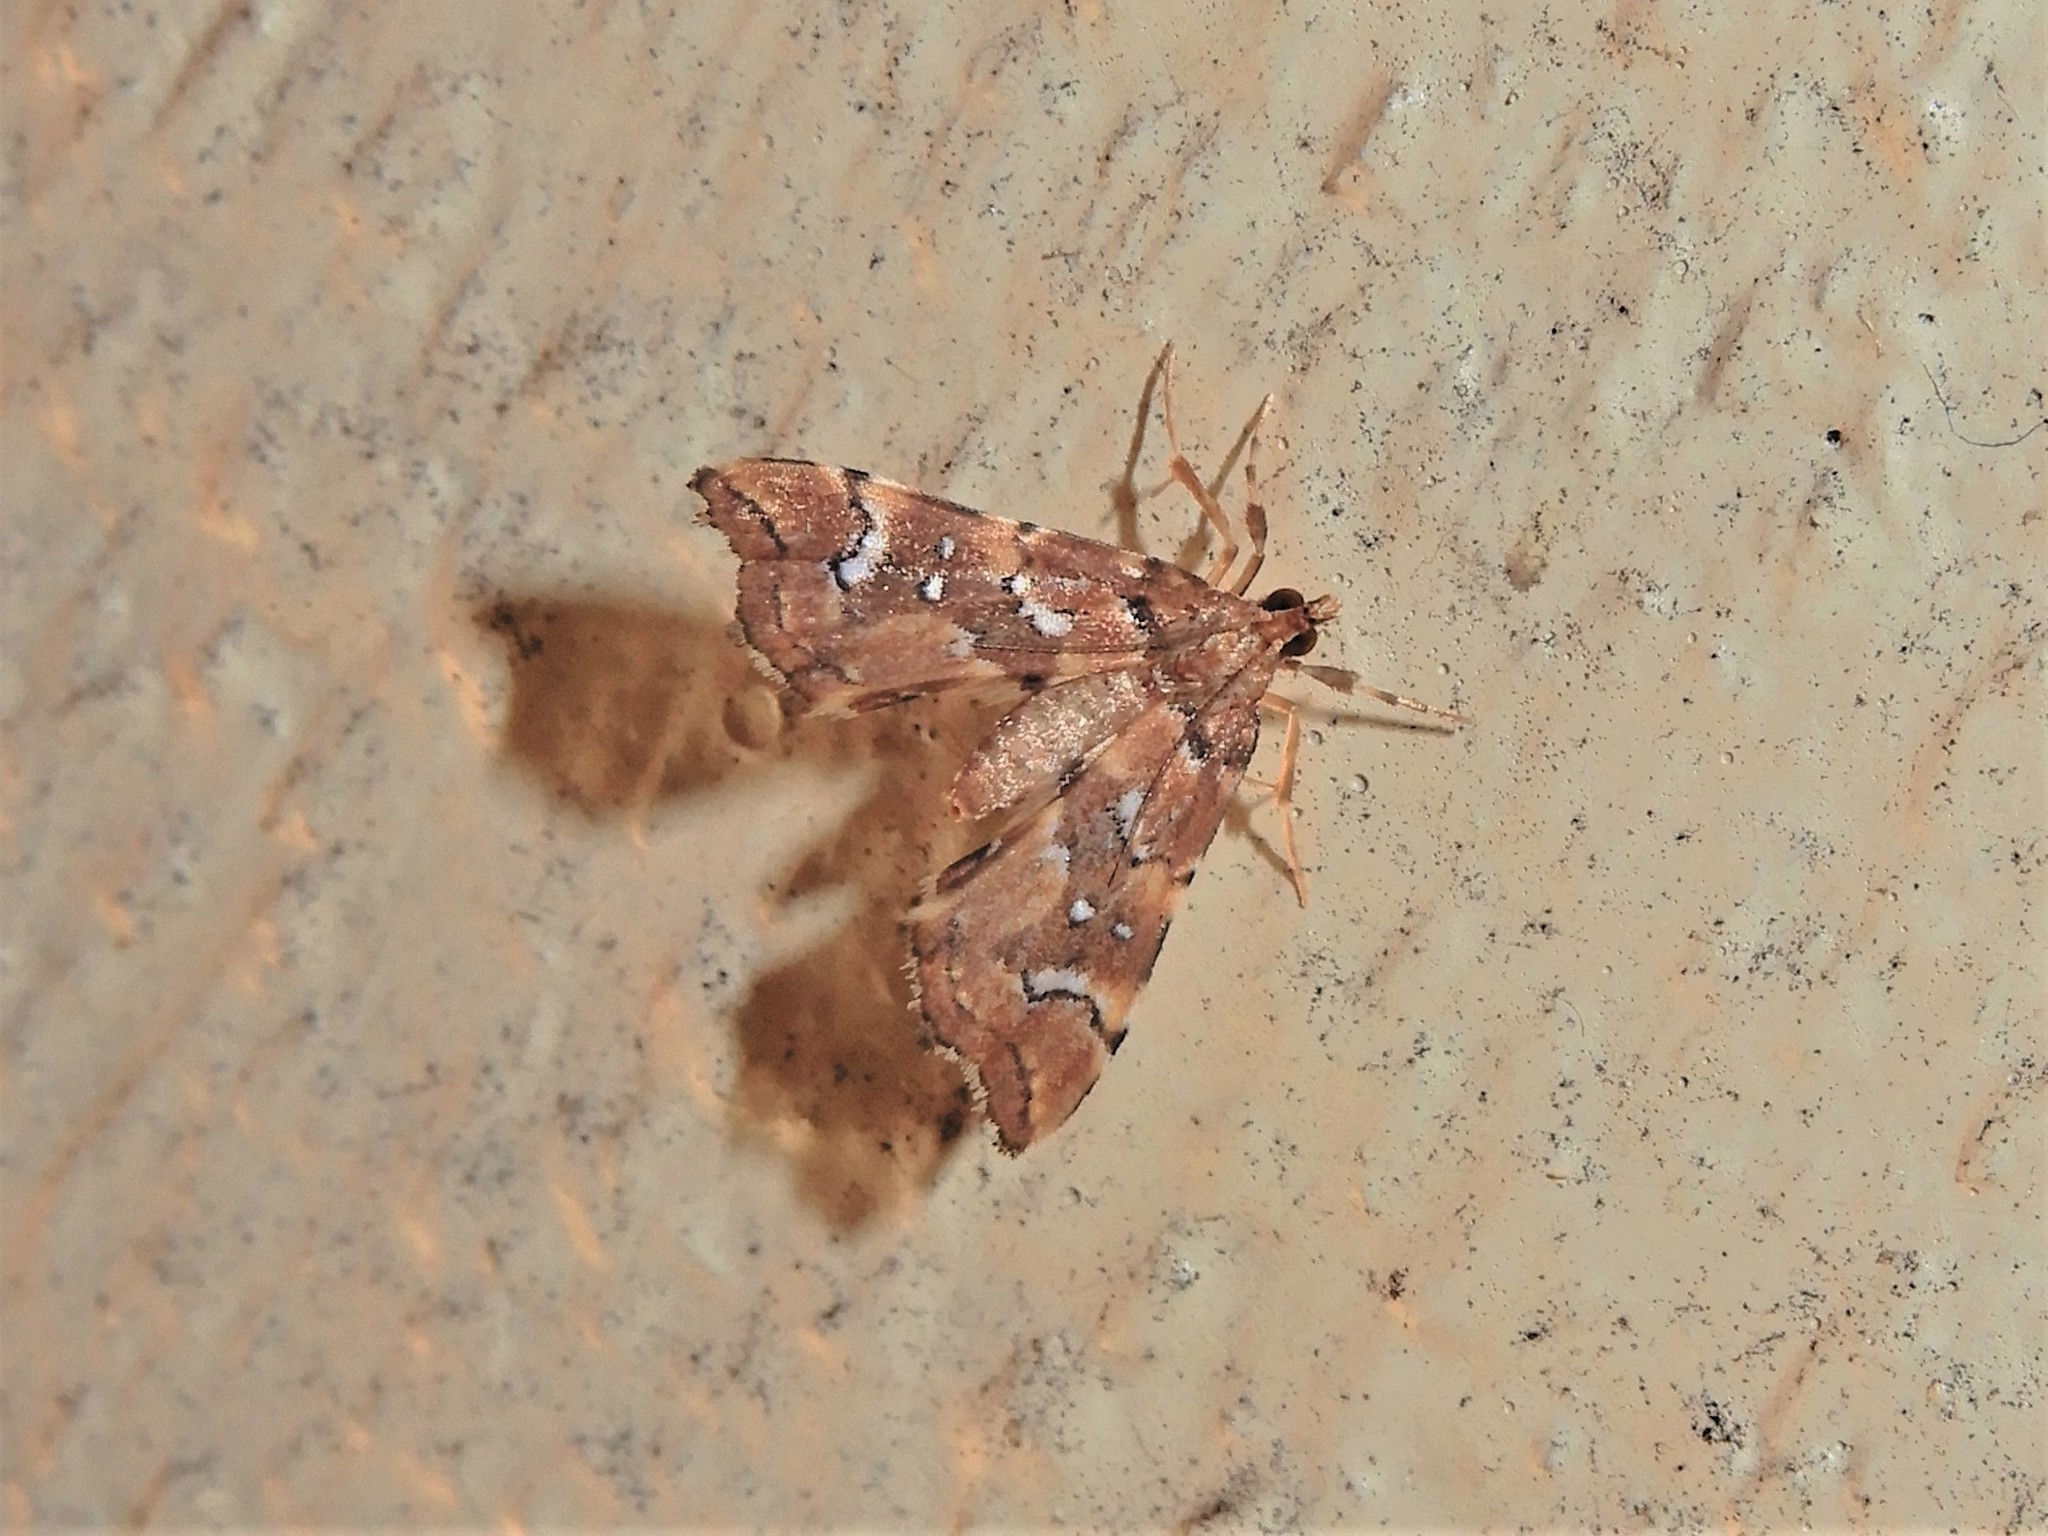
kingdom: Animalia
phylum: Arthropoda
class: Insecta
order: Lepidoptera
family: Pyralidae
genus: Musotima
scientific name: Musotima nitidalis
